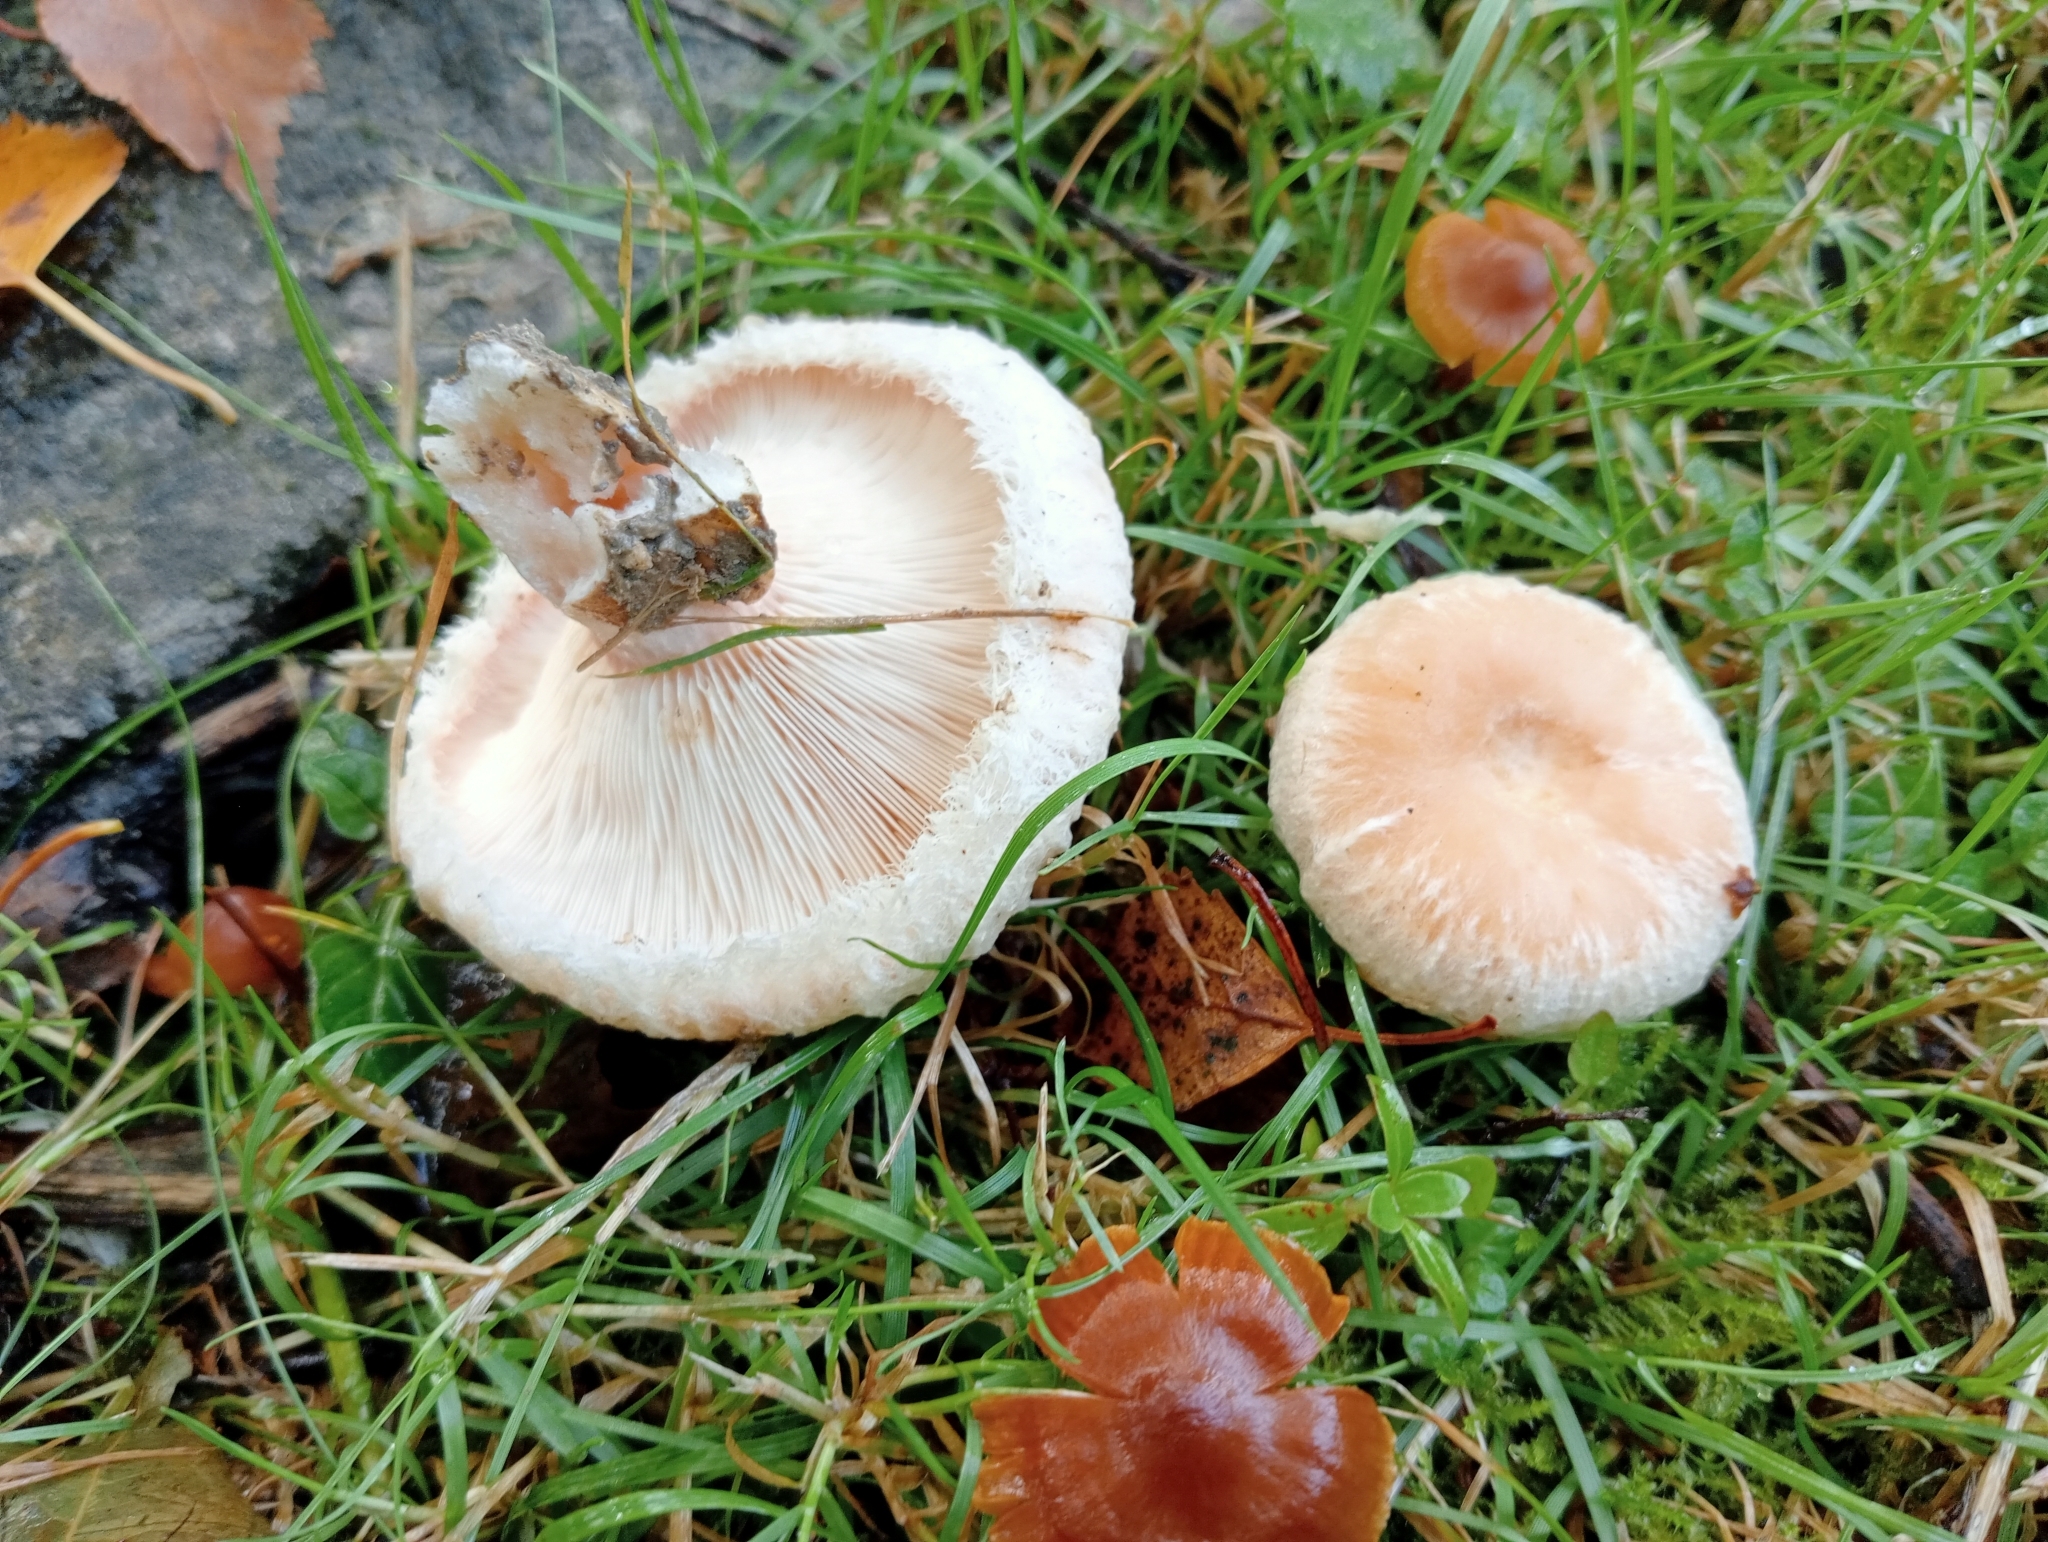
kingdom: Fungi
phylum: Basidiomycota
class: Agaricomycetes
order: Russulales
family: Russulaceae
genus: Lactarius
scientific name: Lactarius pubescens
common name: Bearded milkcap
